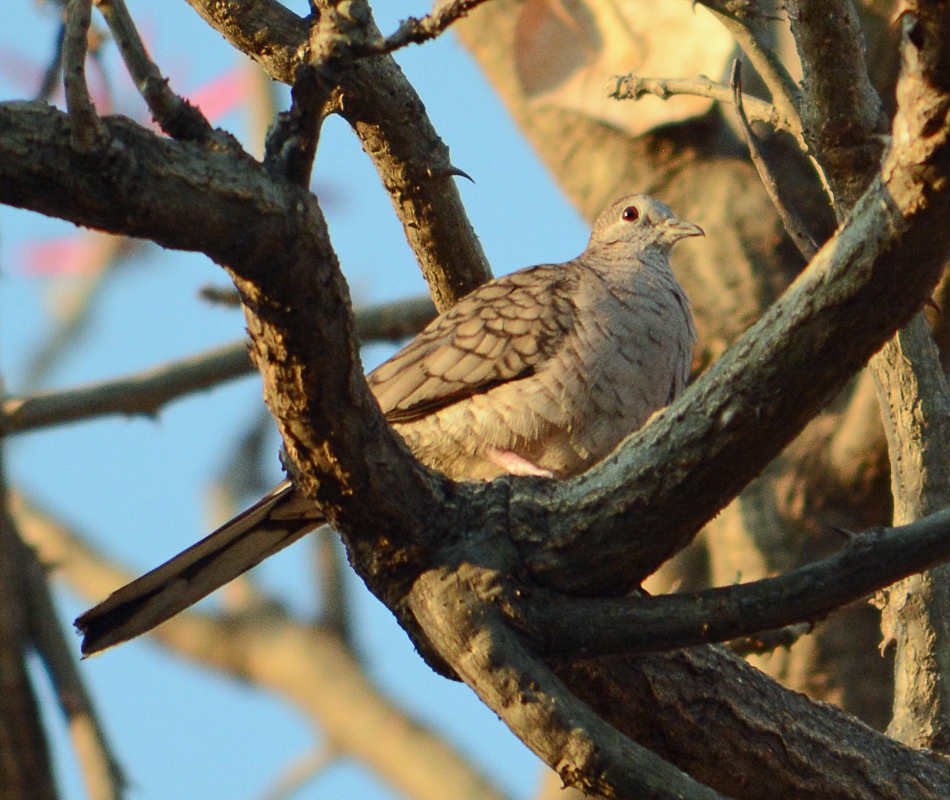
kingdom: Animalia
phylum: Chordata
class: Aves
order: Columbiformes
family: Columbidae
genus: Columbina
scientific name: Columbina inca
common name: Inca dove
